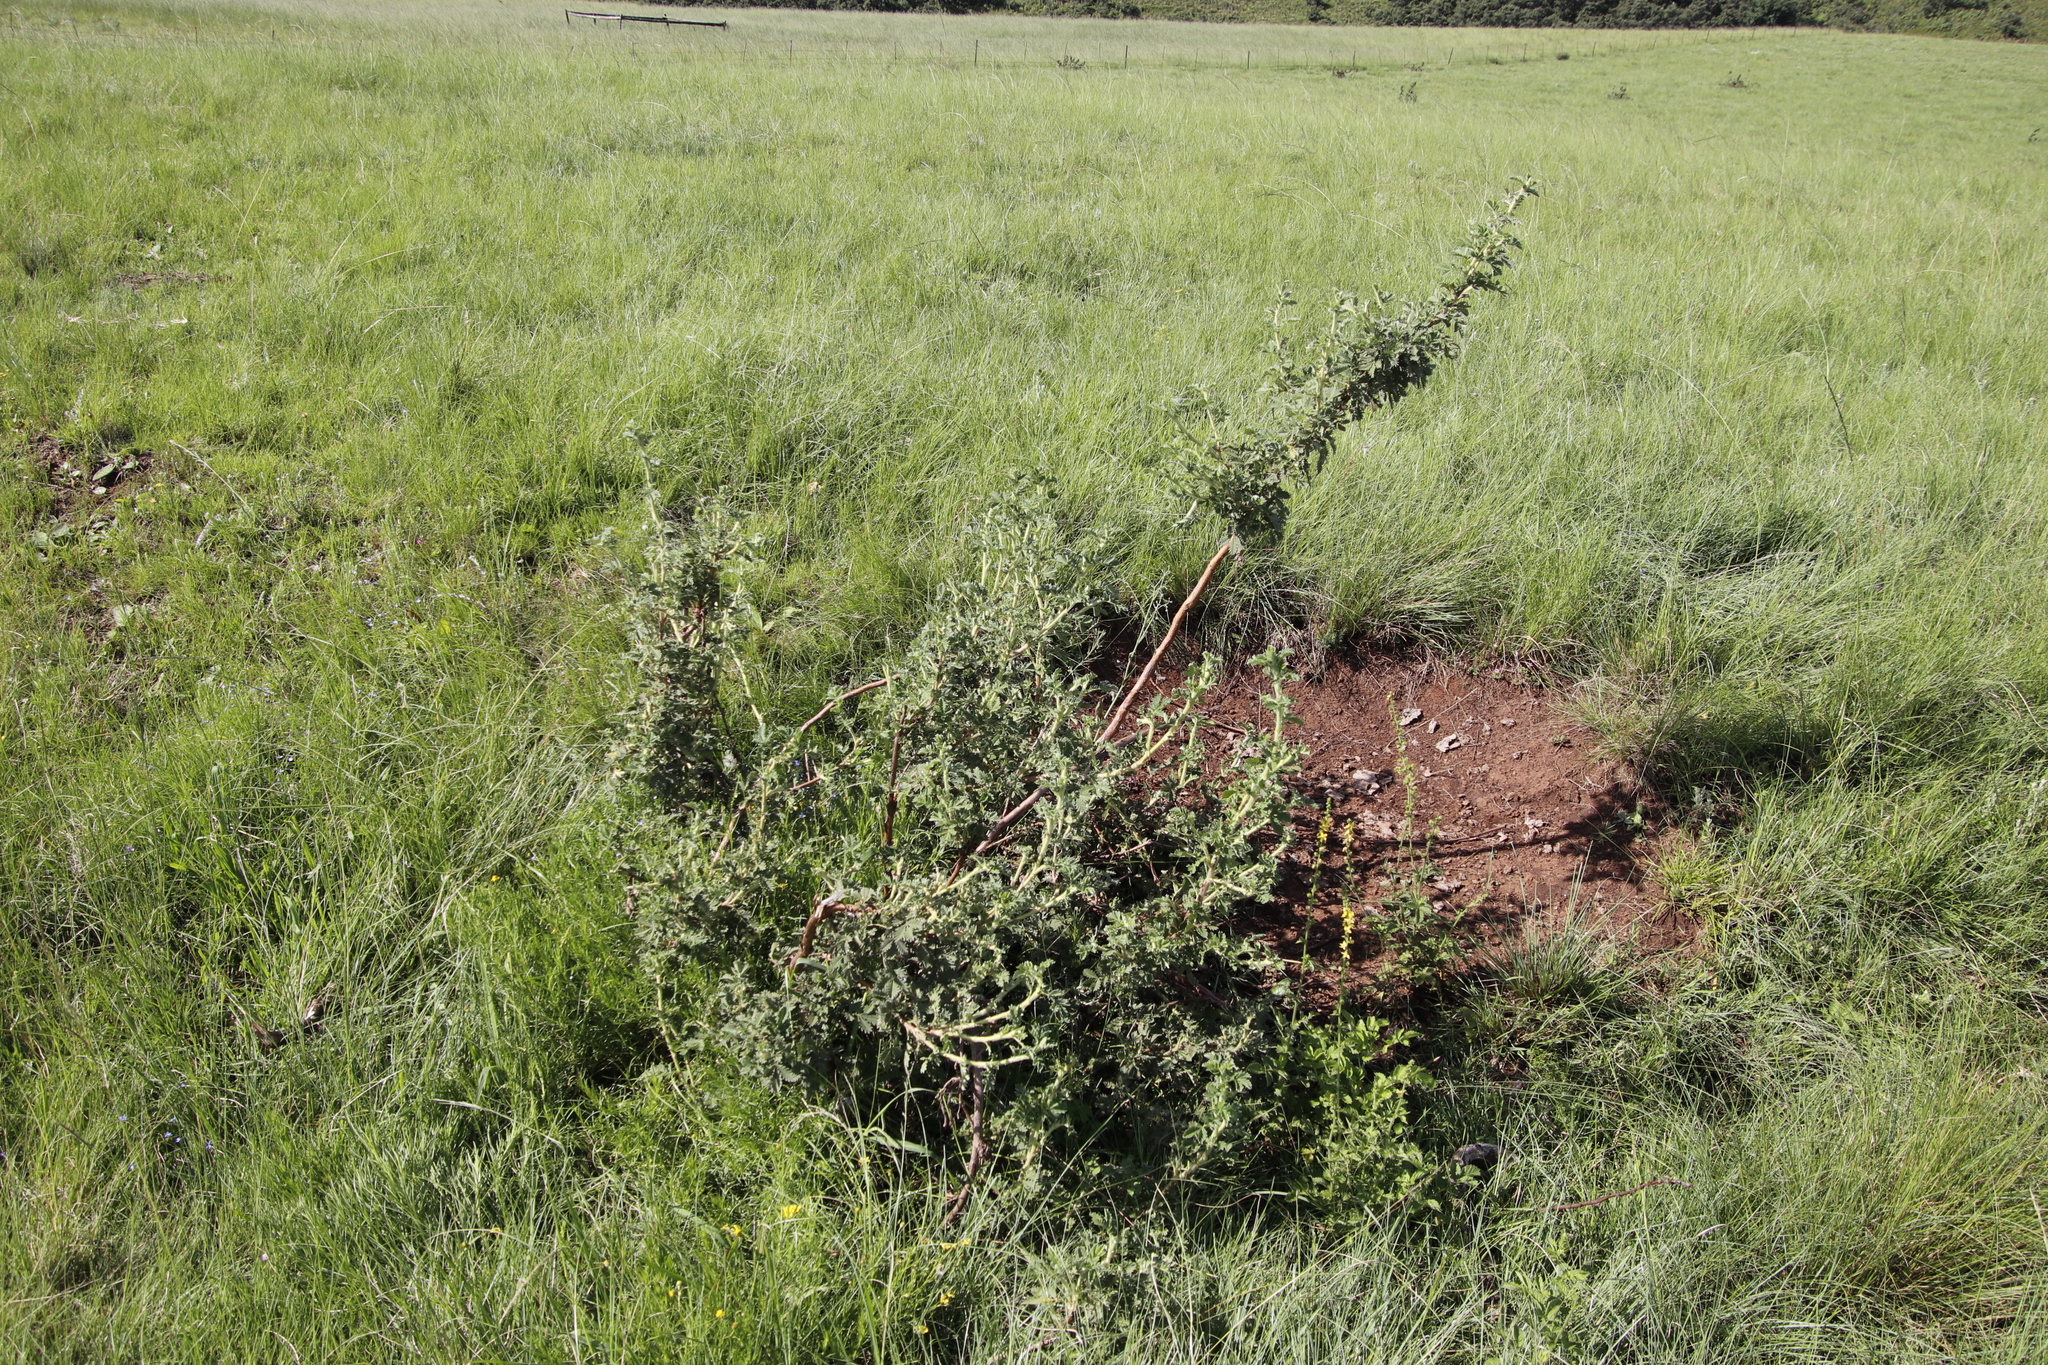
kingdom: Plantae
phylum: Tracheophyta
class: Magnoliopsida
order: Rosales
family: Rosaceae
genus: Leucosidea
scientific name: Leucosidea sericea
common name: Oldwood
